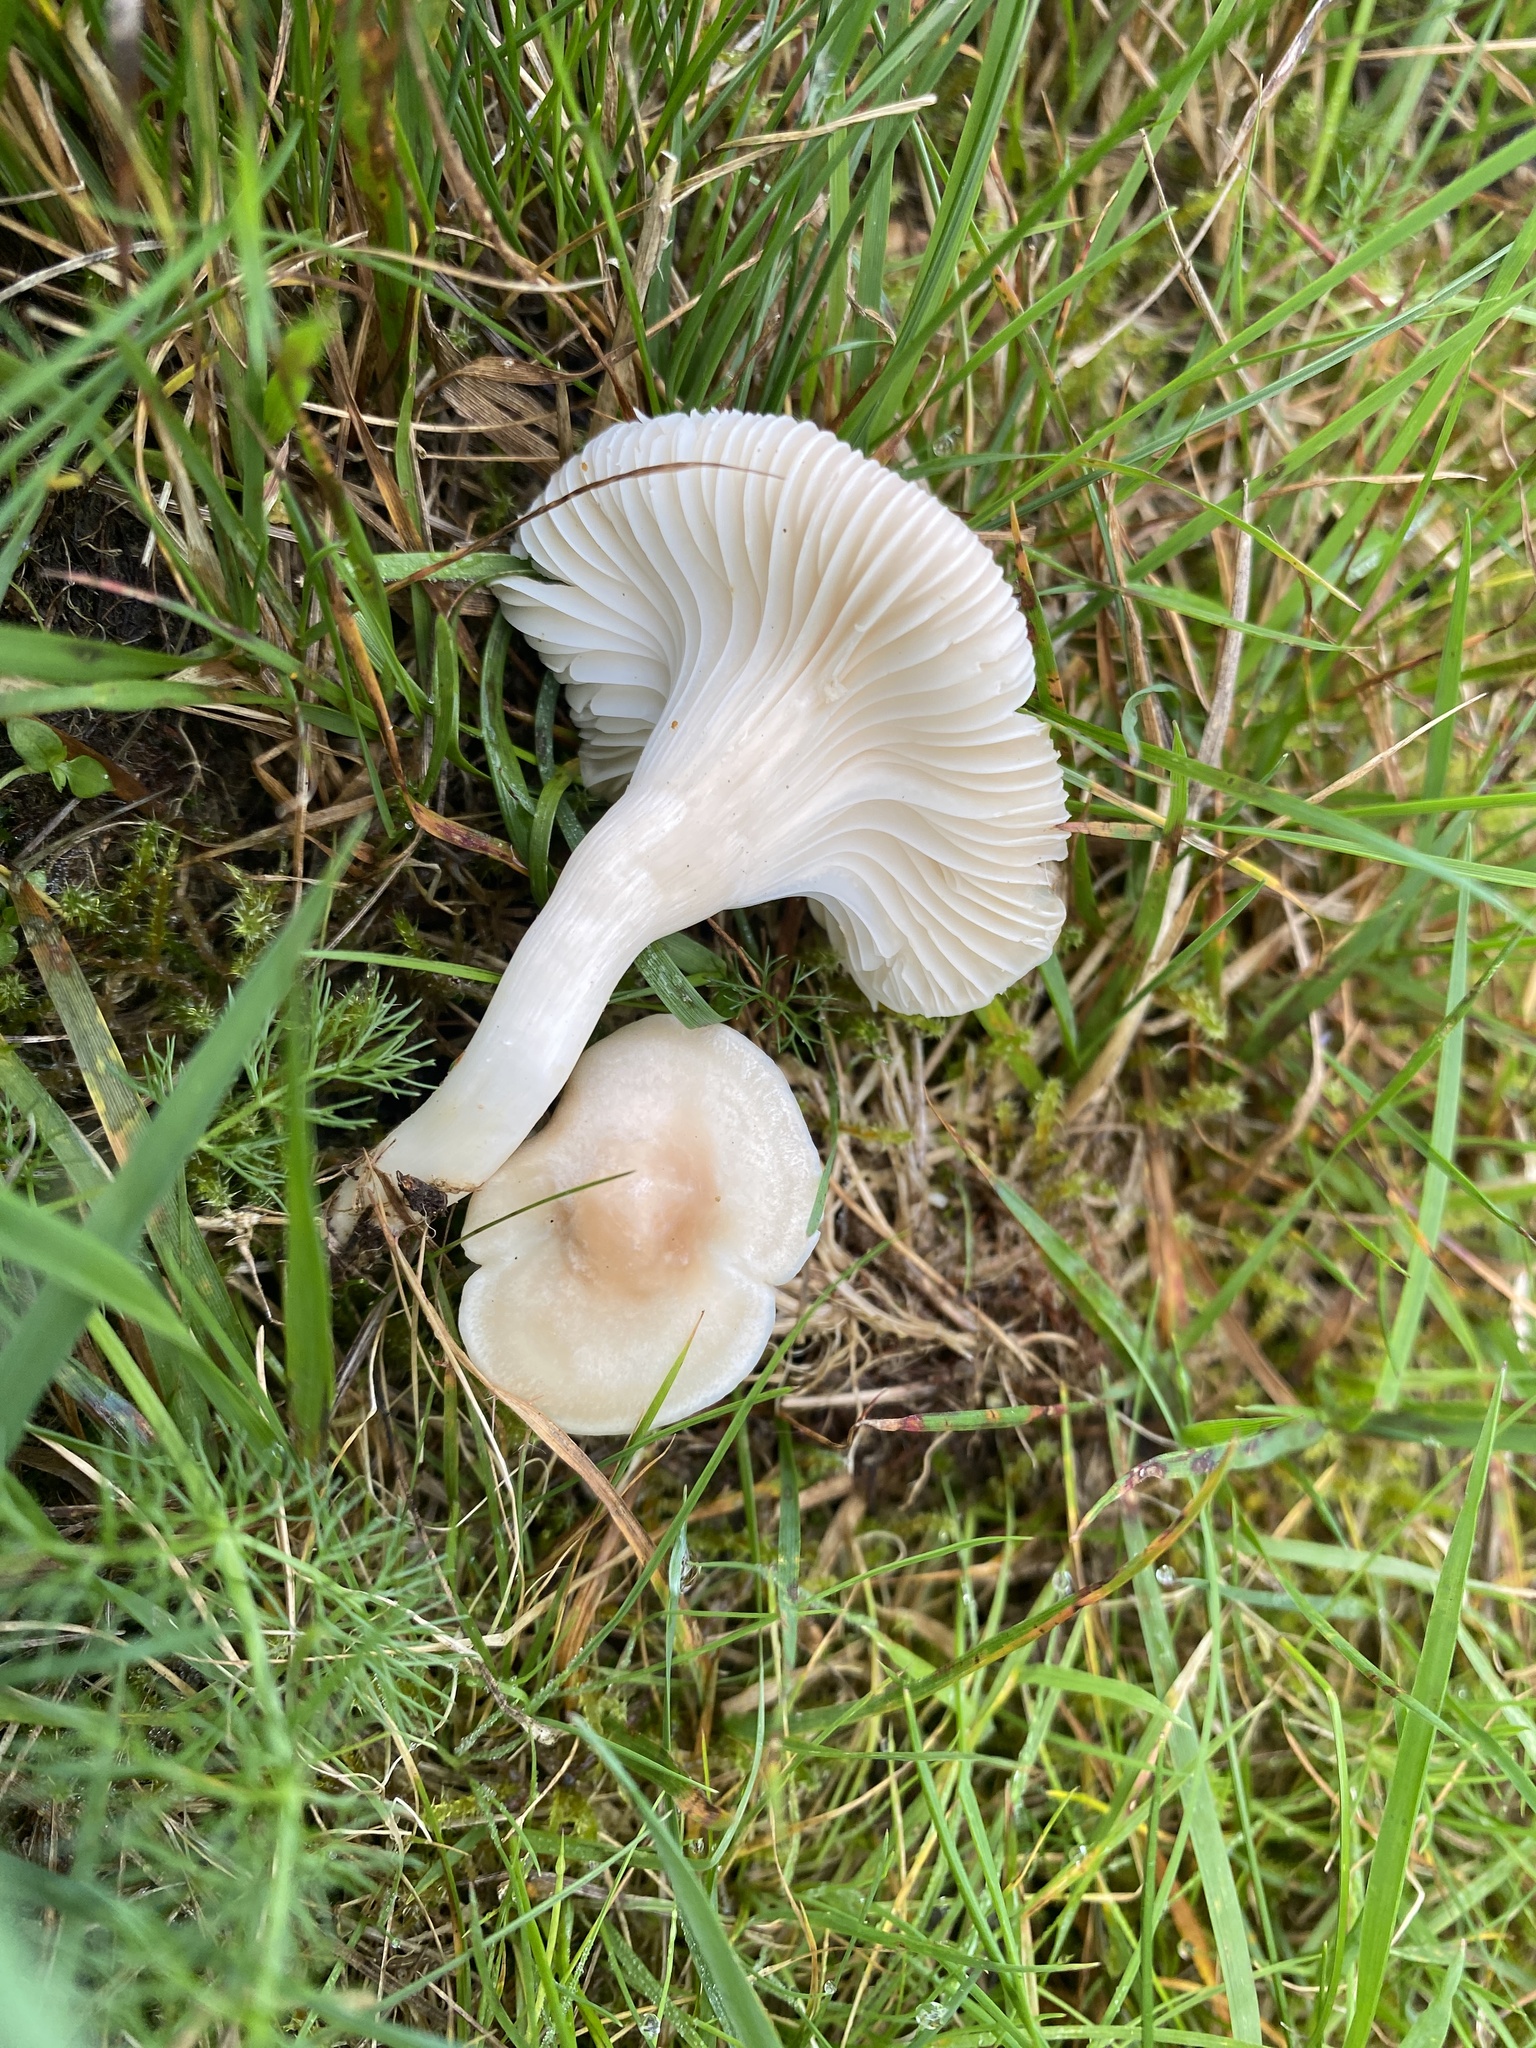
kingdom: Fungi
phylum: Basidiomycota
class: Agaricomycetes
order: Agaricales
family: Hygrophoraceae
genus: Cuphophyllus
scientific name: Cuphophyllus pratensis
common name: Meadow waxcap
